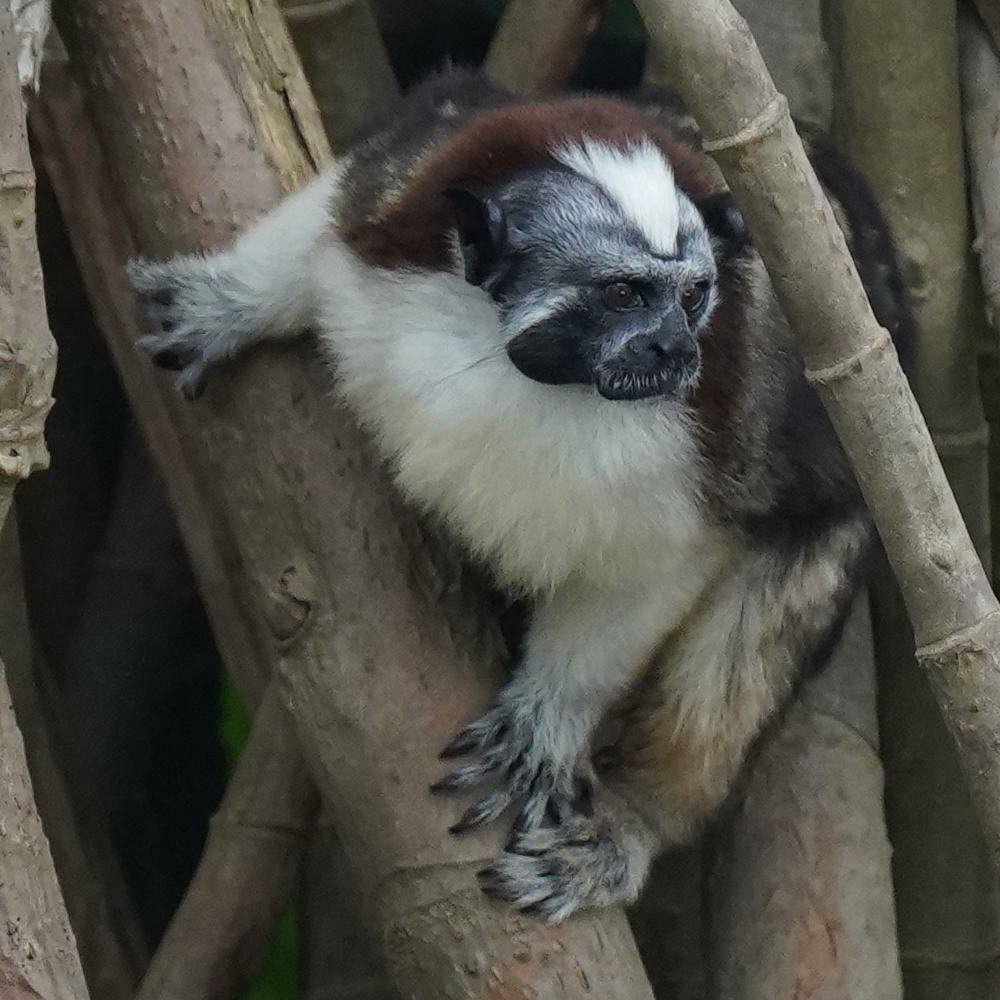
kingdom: Animalia
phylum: Chordata
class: Mammalia
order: Primates
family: Callitrichidae
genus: Saguinus
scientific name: Saguinus geoffroyi
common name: Geoffroy s tamarin
